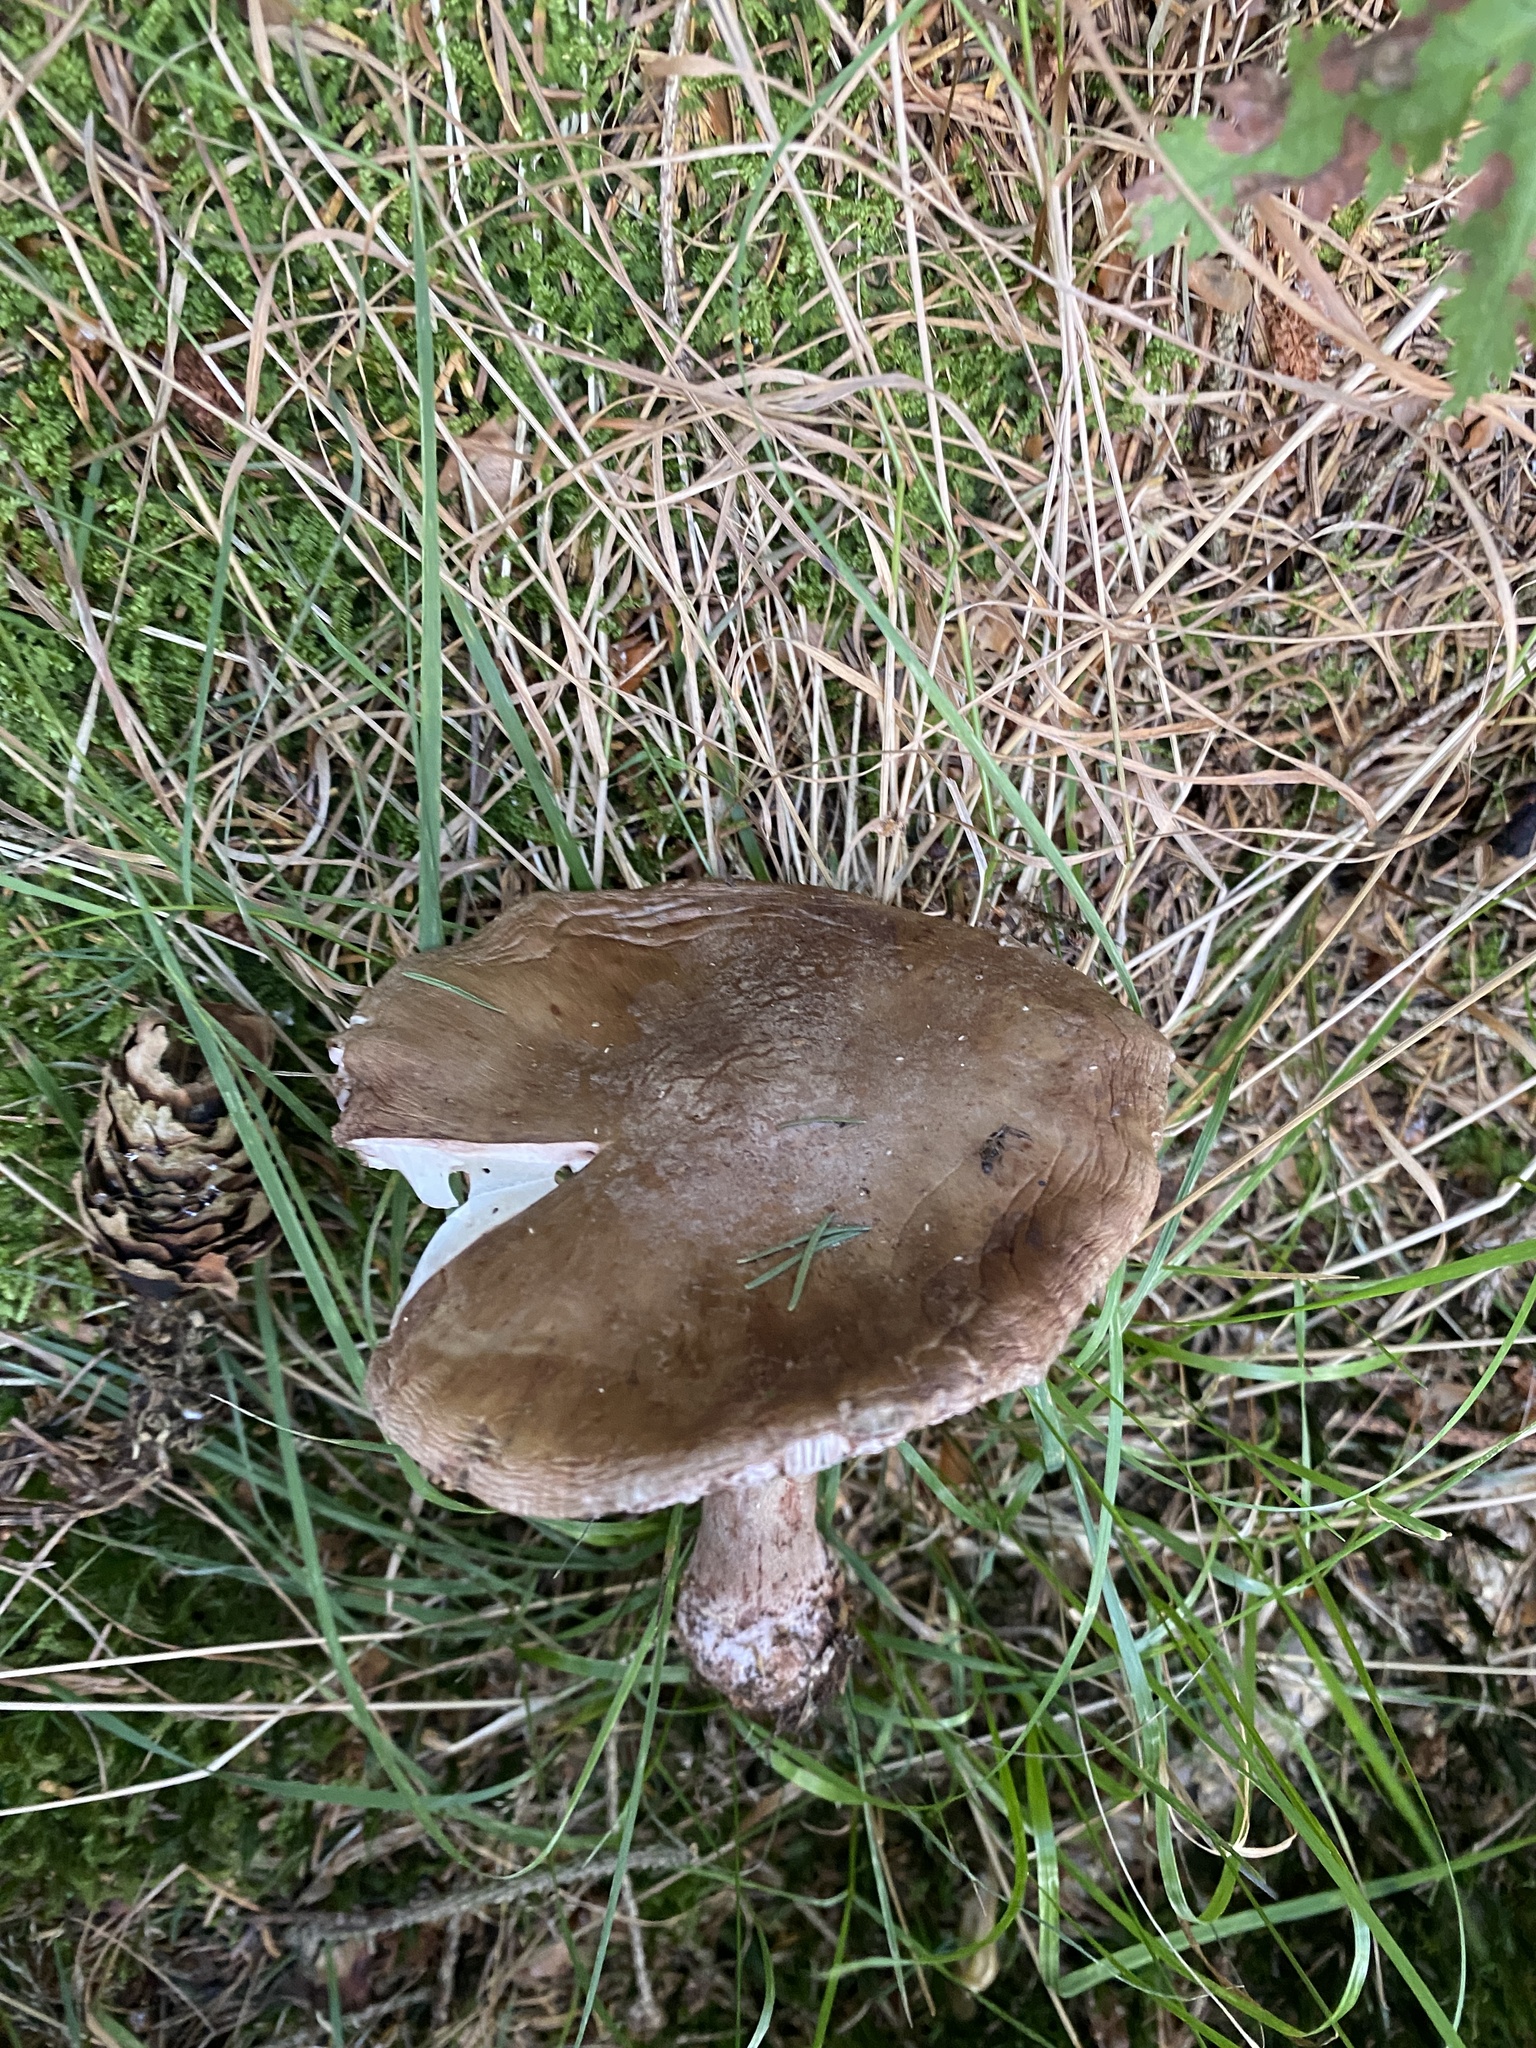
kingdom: Fungi
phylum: Basidiomycota
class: Agaricomycetes
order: Agaricales
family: Amanitaceae
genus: Amanita
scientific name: Amanita rubescens
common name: Blusher
